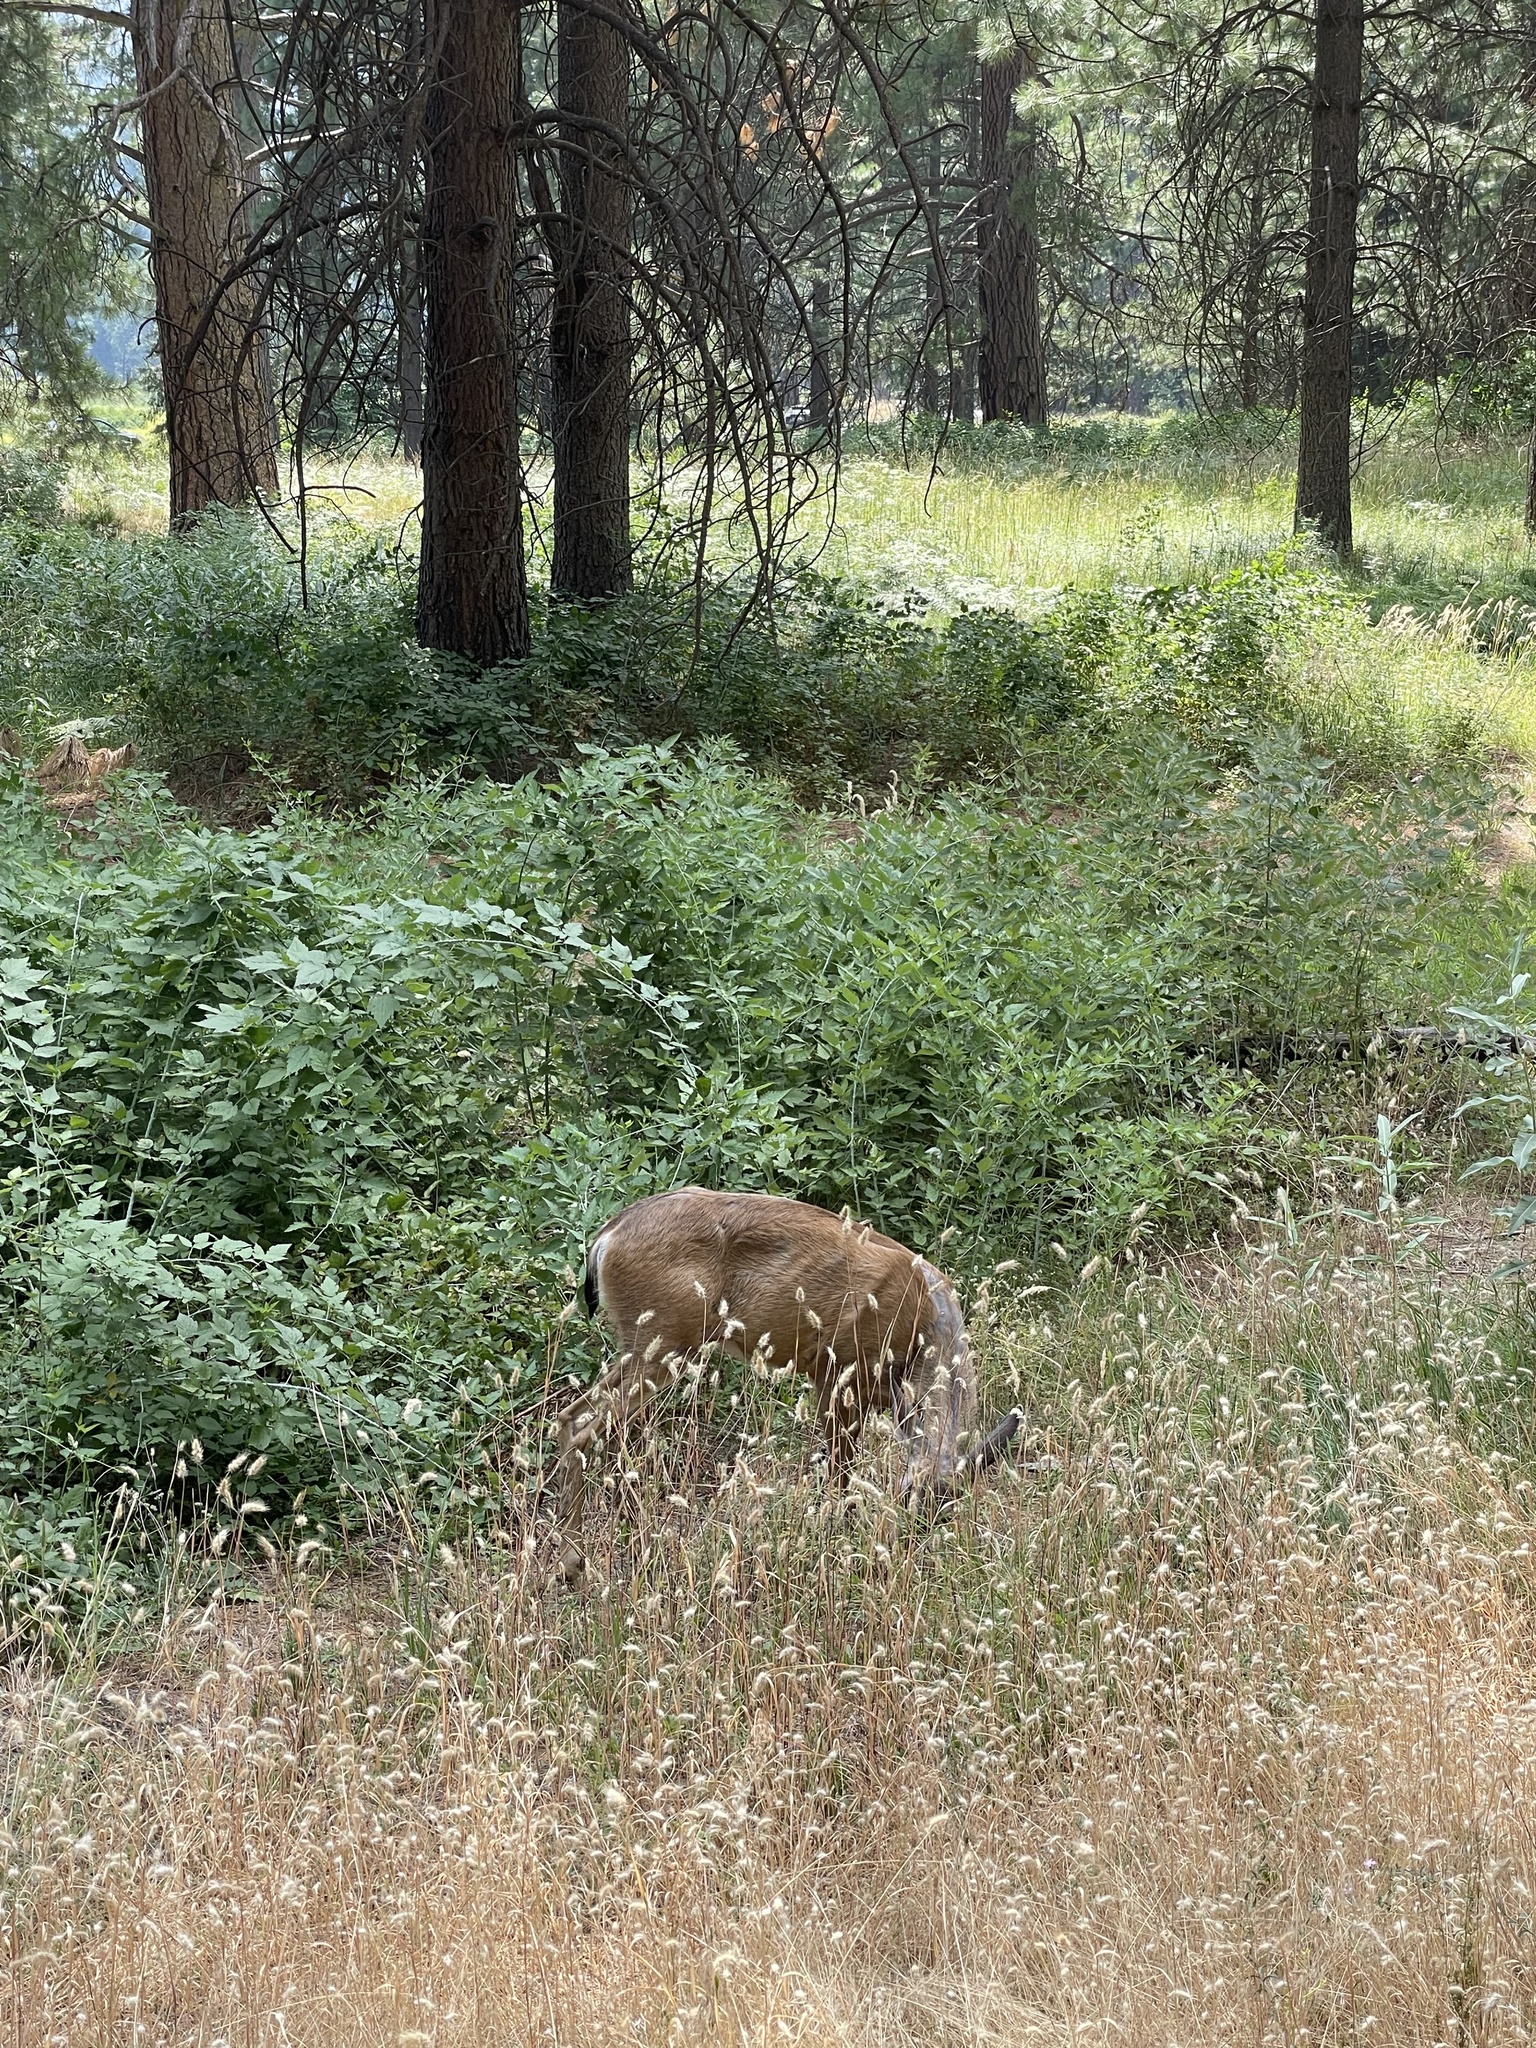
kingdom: Animalia
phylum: Chordata
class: Mammalia
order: Artiodactyla
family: Cervidae
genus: Odocoileus
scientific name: Odocoileus hemionus
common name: Mule deer
